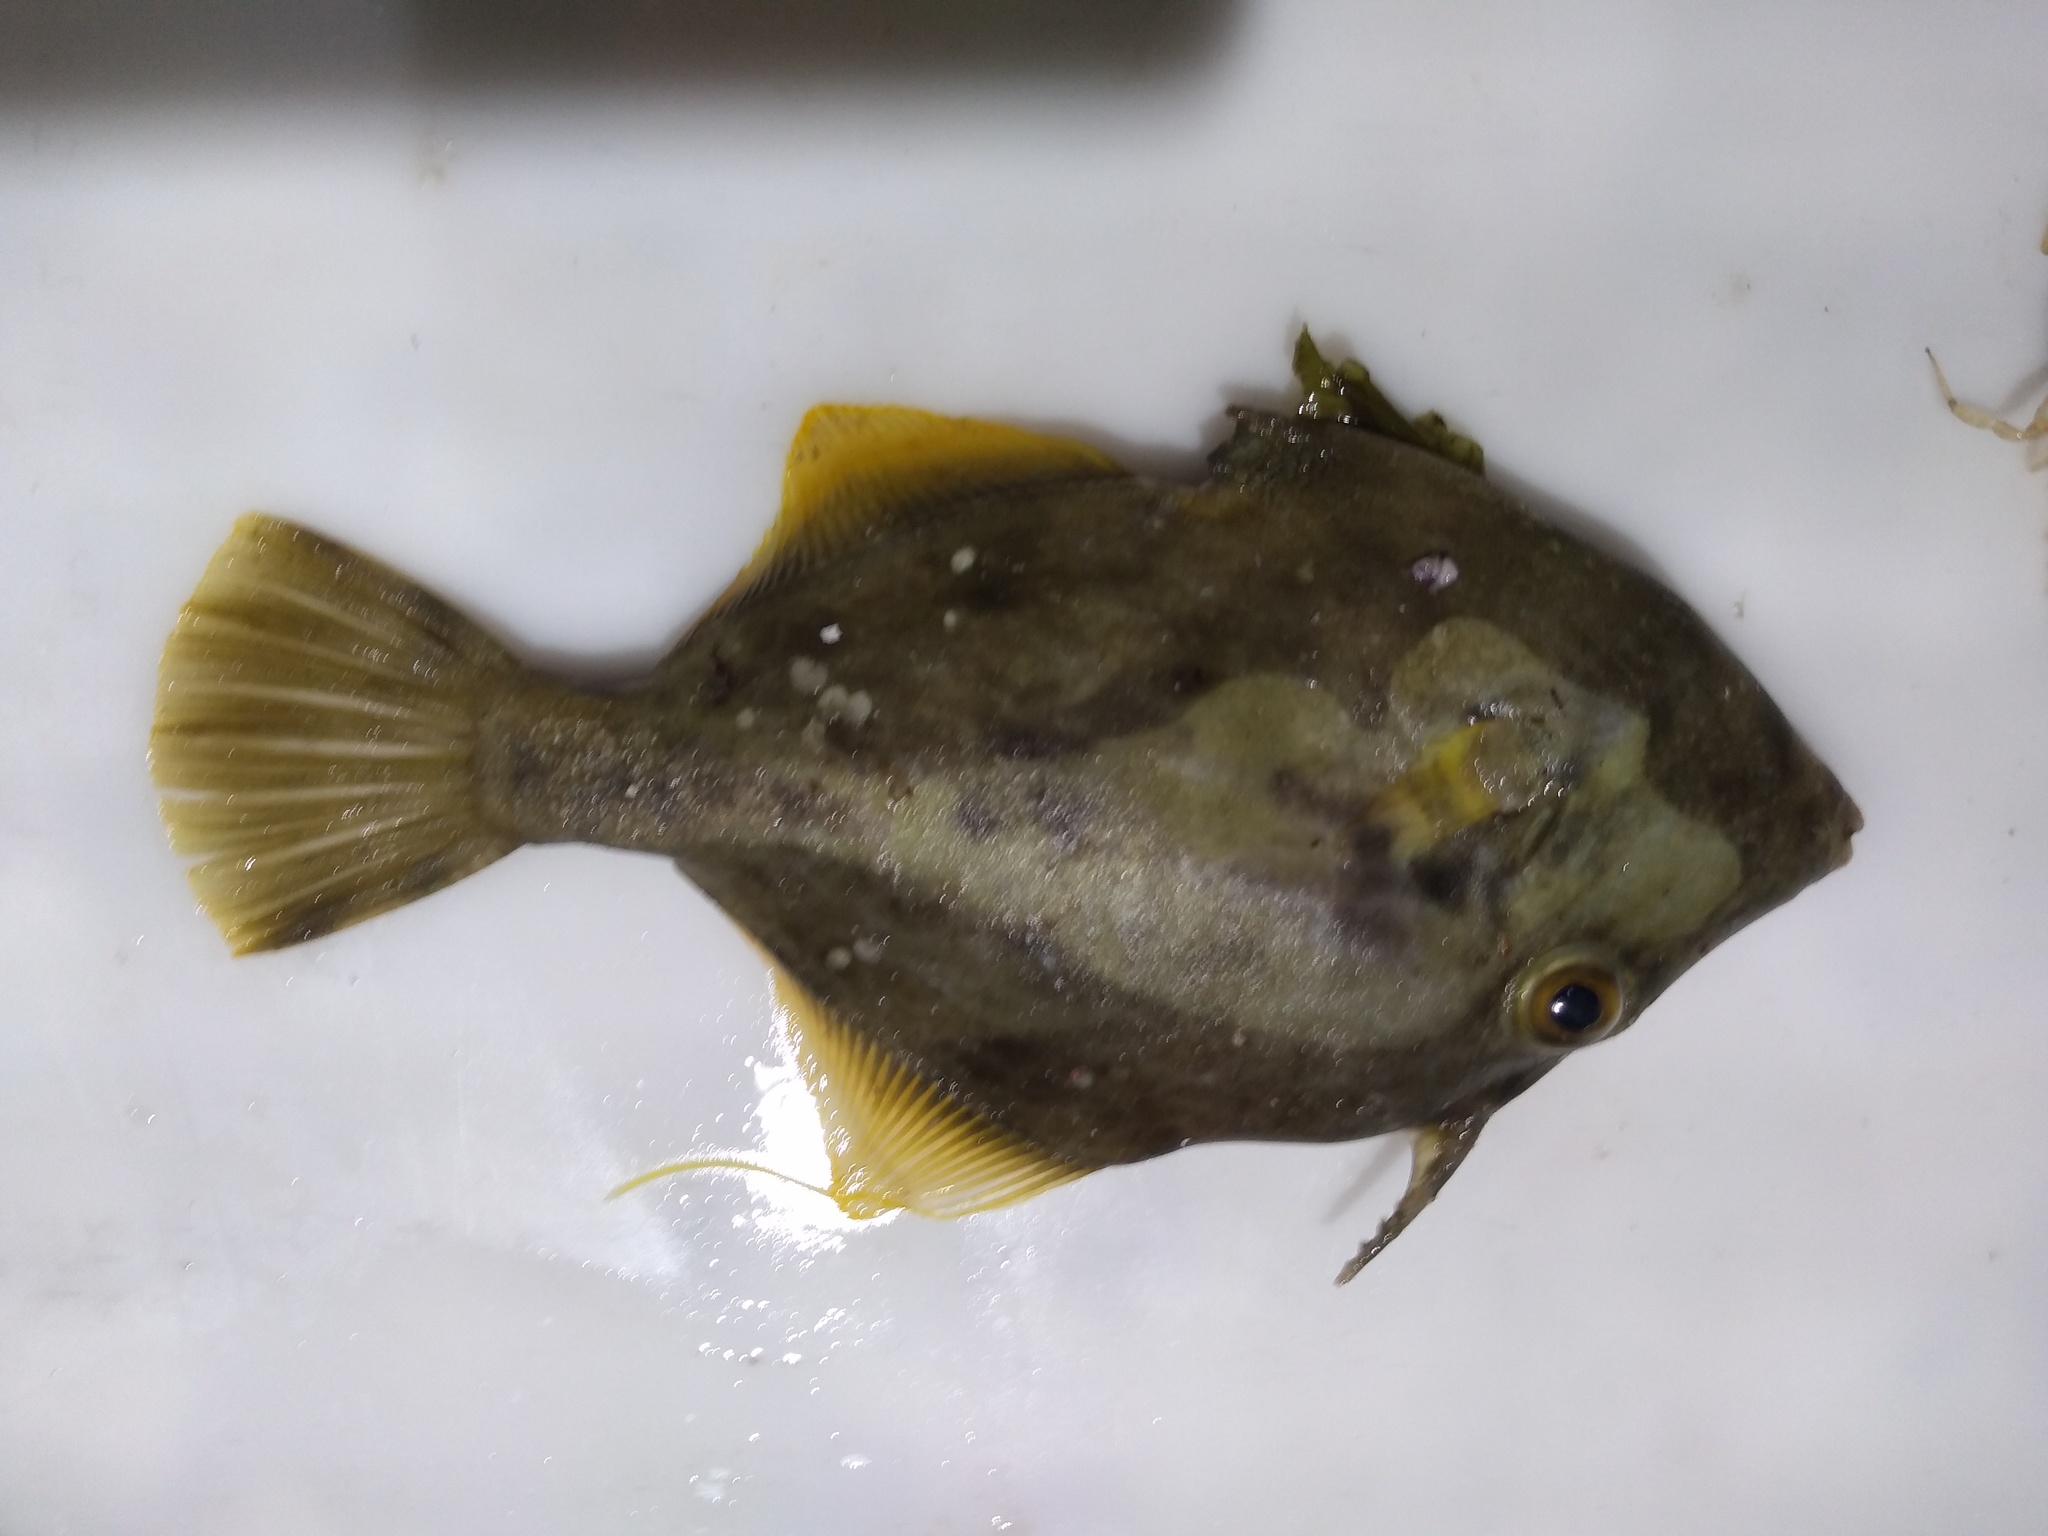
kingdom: Animalia
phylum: Chordata
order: Tetraodontiformes
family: Monacanthidae
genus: Stephanolepis
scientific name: Stephanolepis hispidus
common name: Planehead filefish
